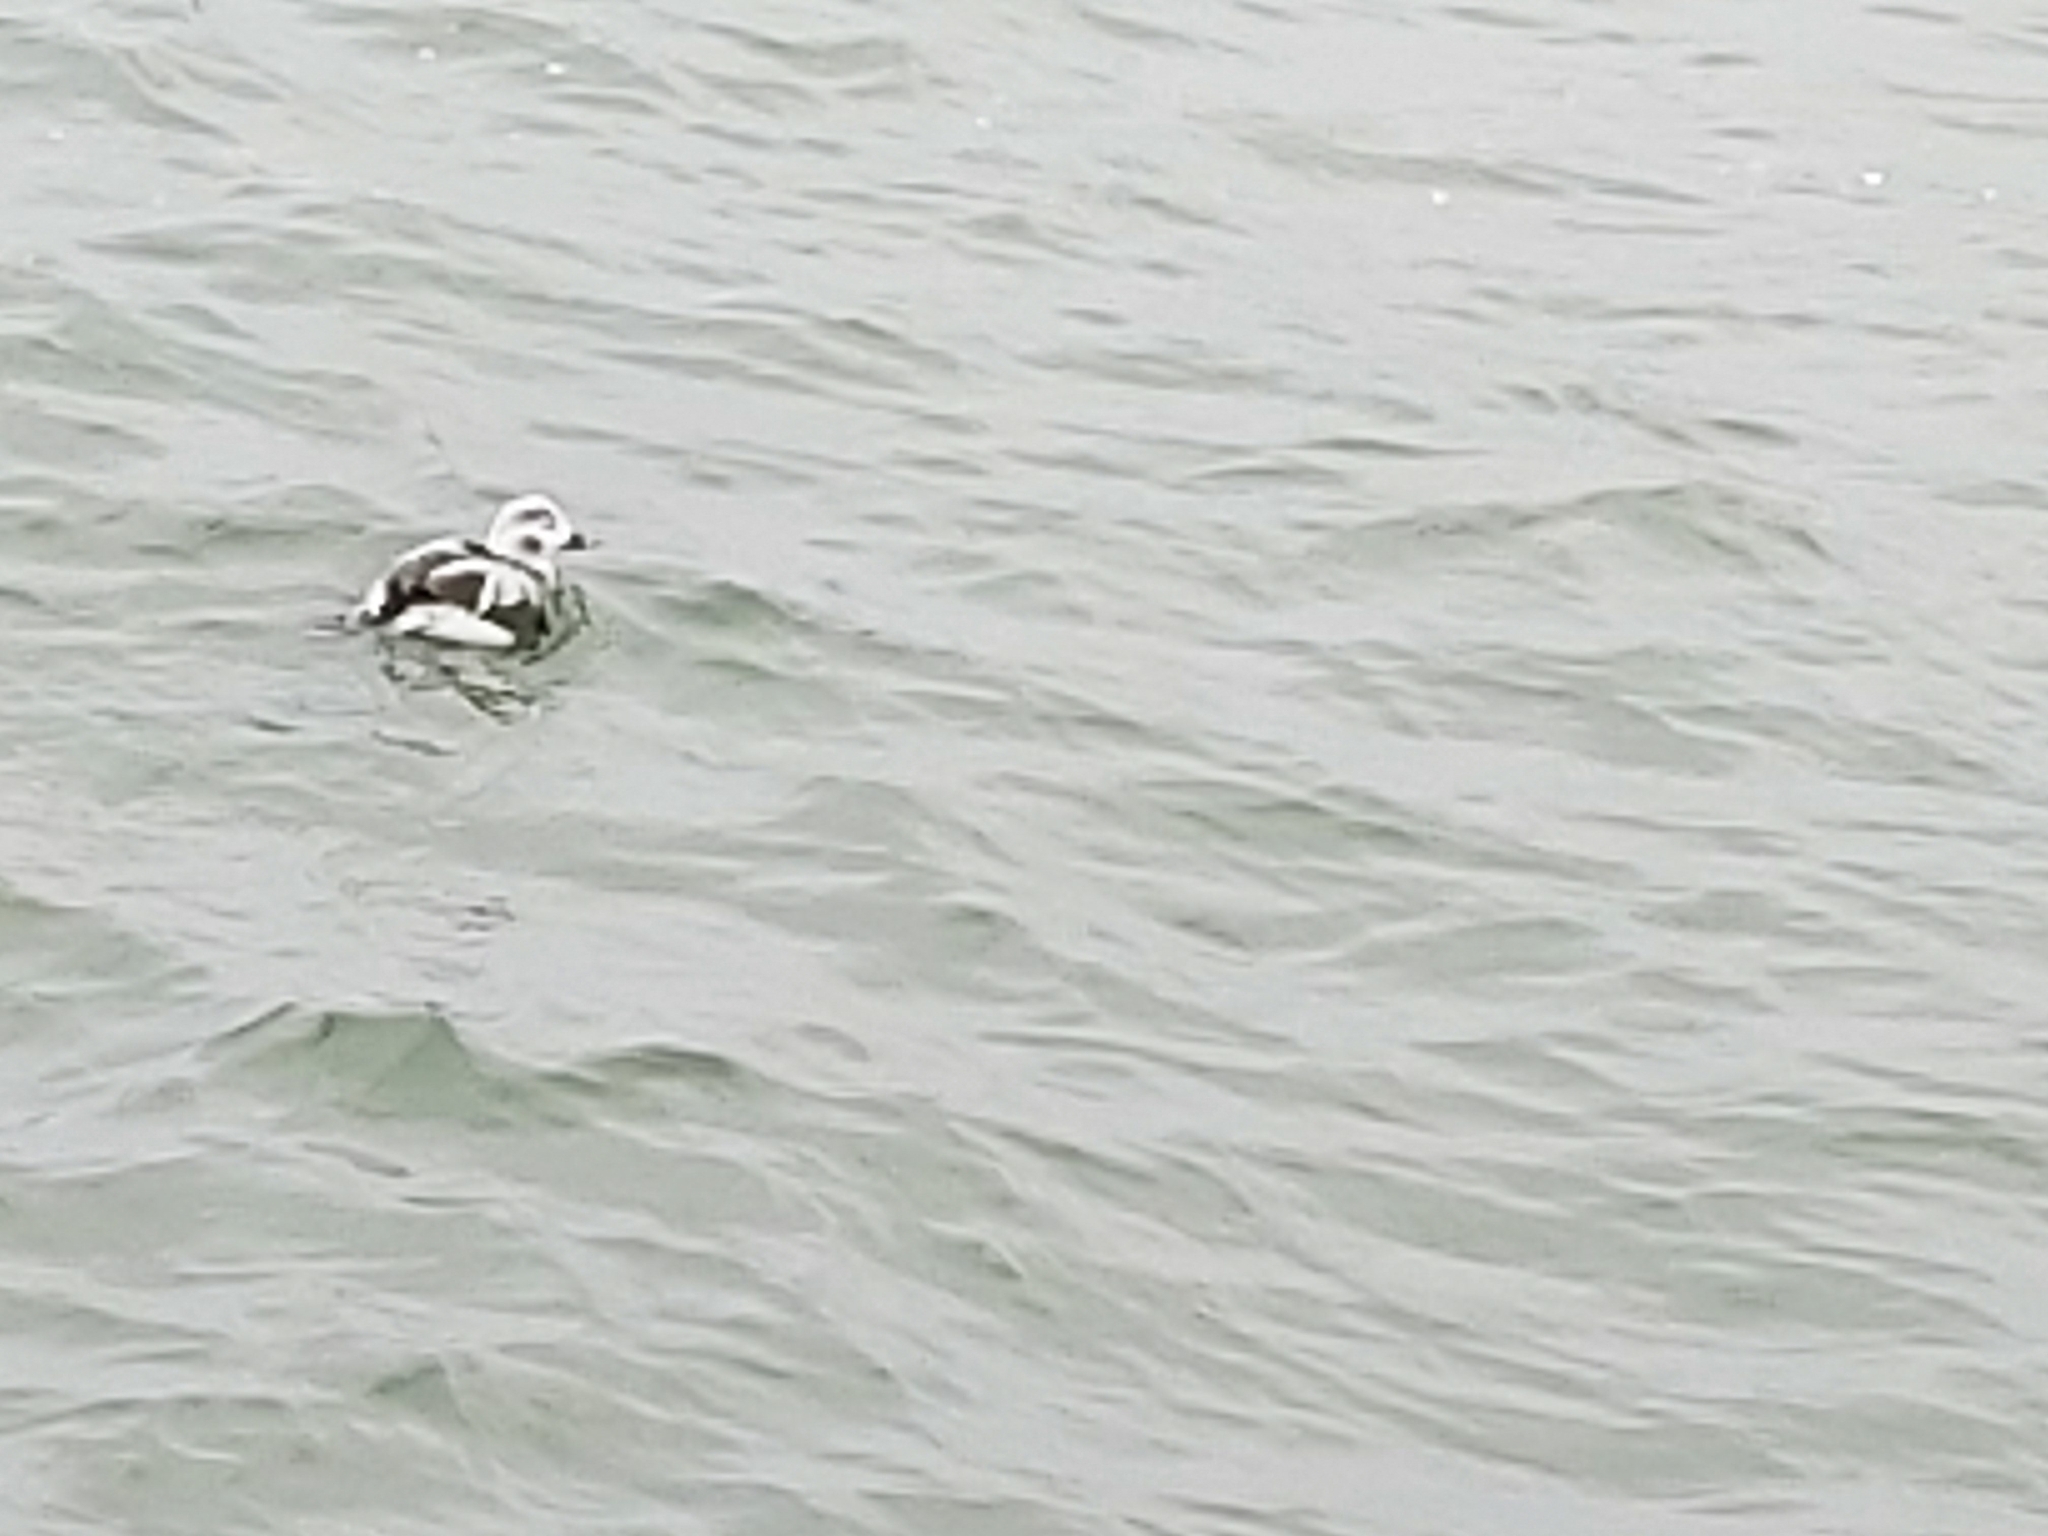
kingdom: Animalia
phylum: Chordata
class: Aves
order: Anseriformes
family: Anatidae
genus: Clangula
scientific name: Clangula hyemalis
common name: Long-tailed duck
